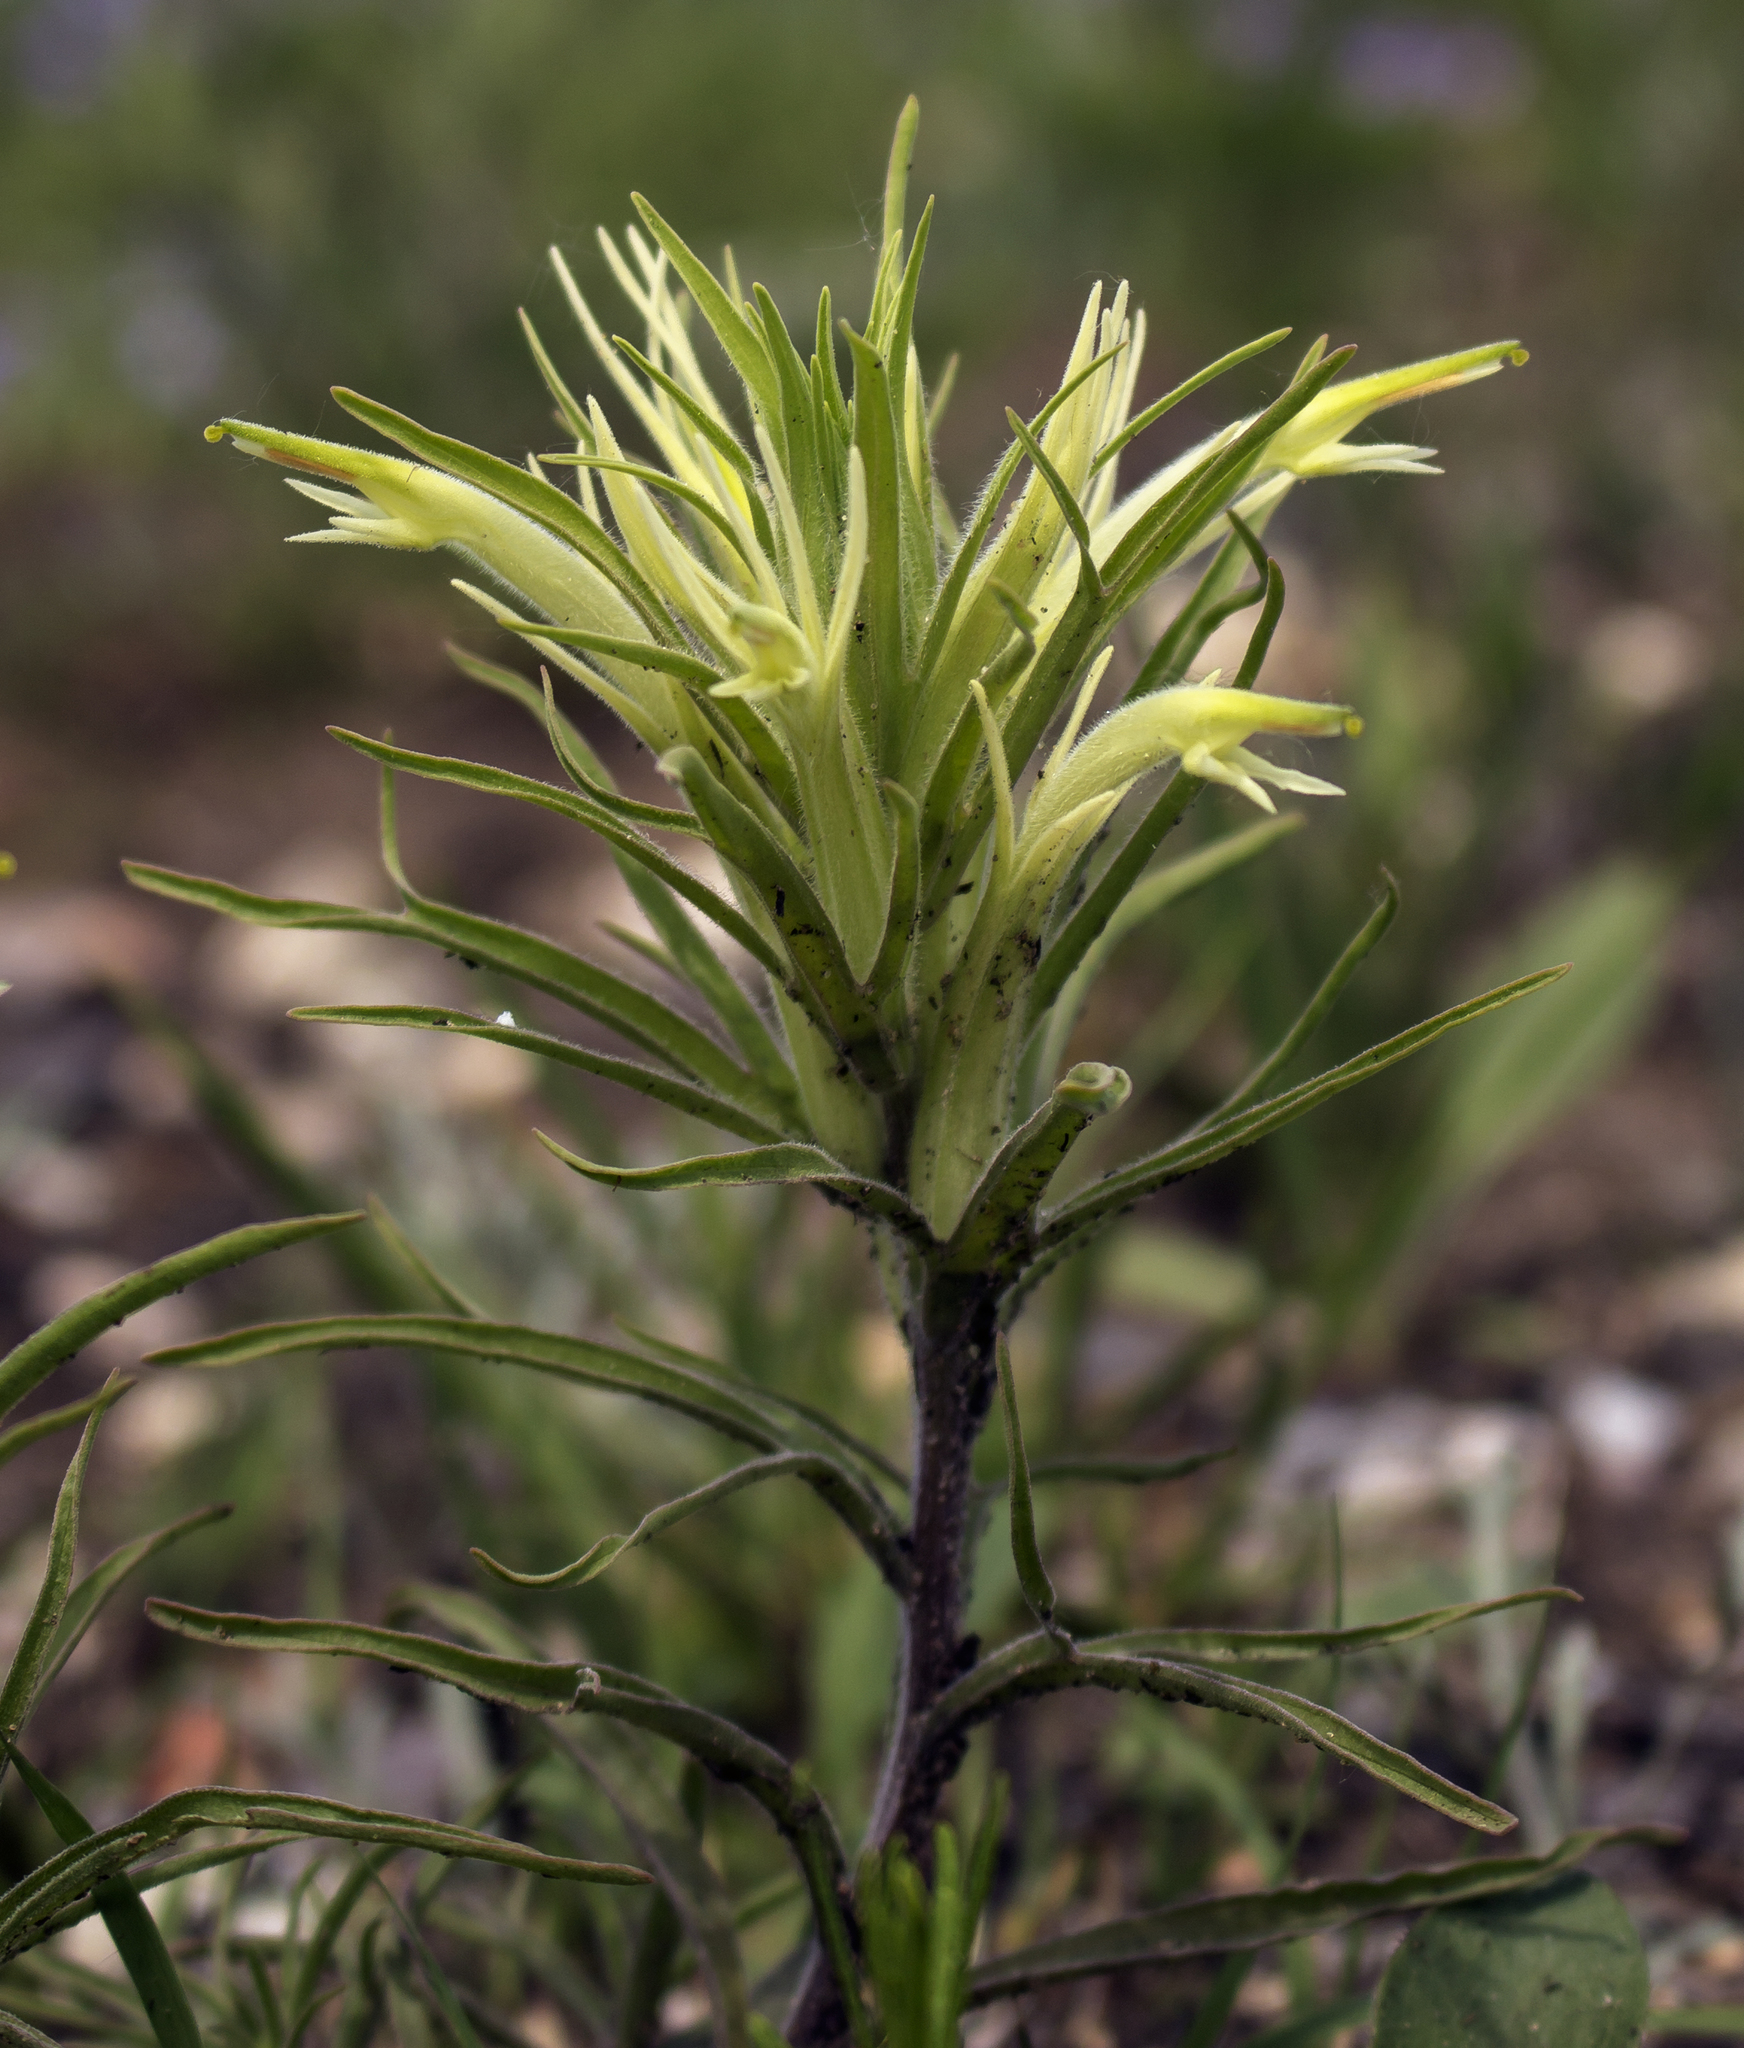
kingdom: Plantae
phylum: Tracheophyta
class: Magnoliopsida
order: Lamiales
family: Orobanchaceae
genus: Castilleja
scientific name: Castilleja sessiliflora
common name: Downy paintbrush
